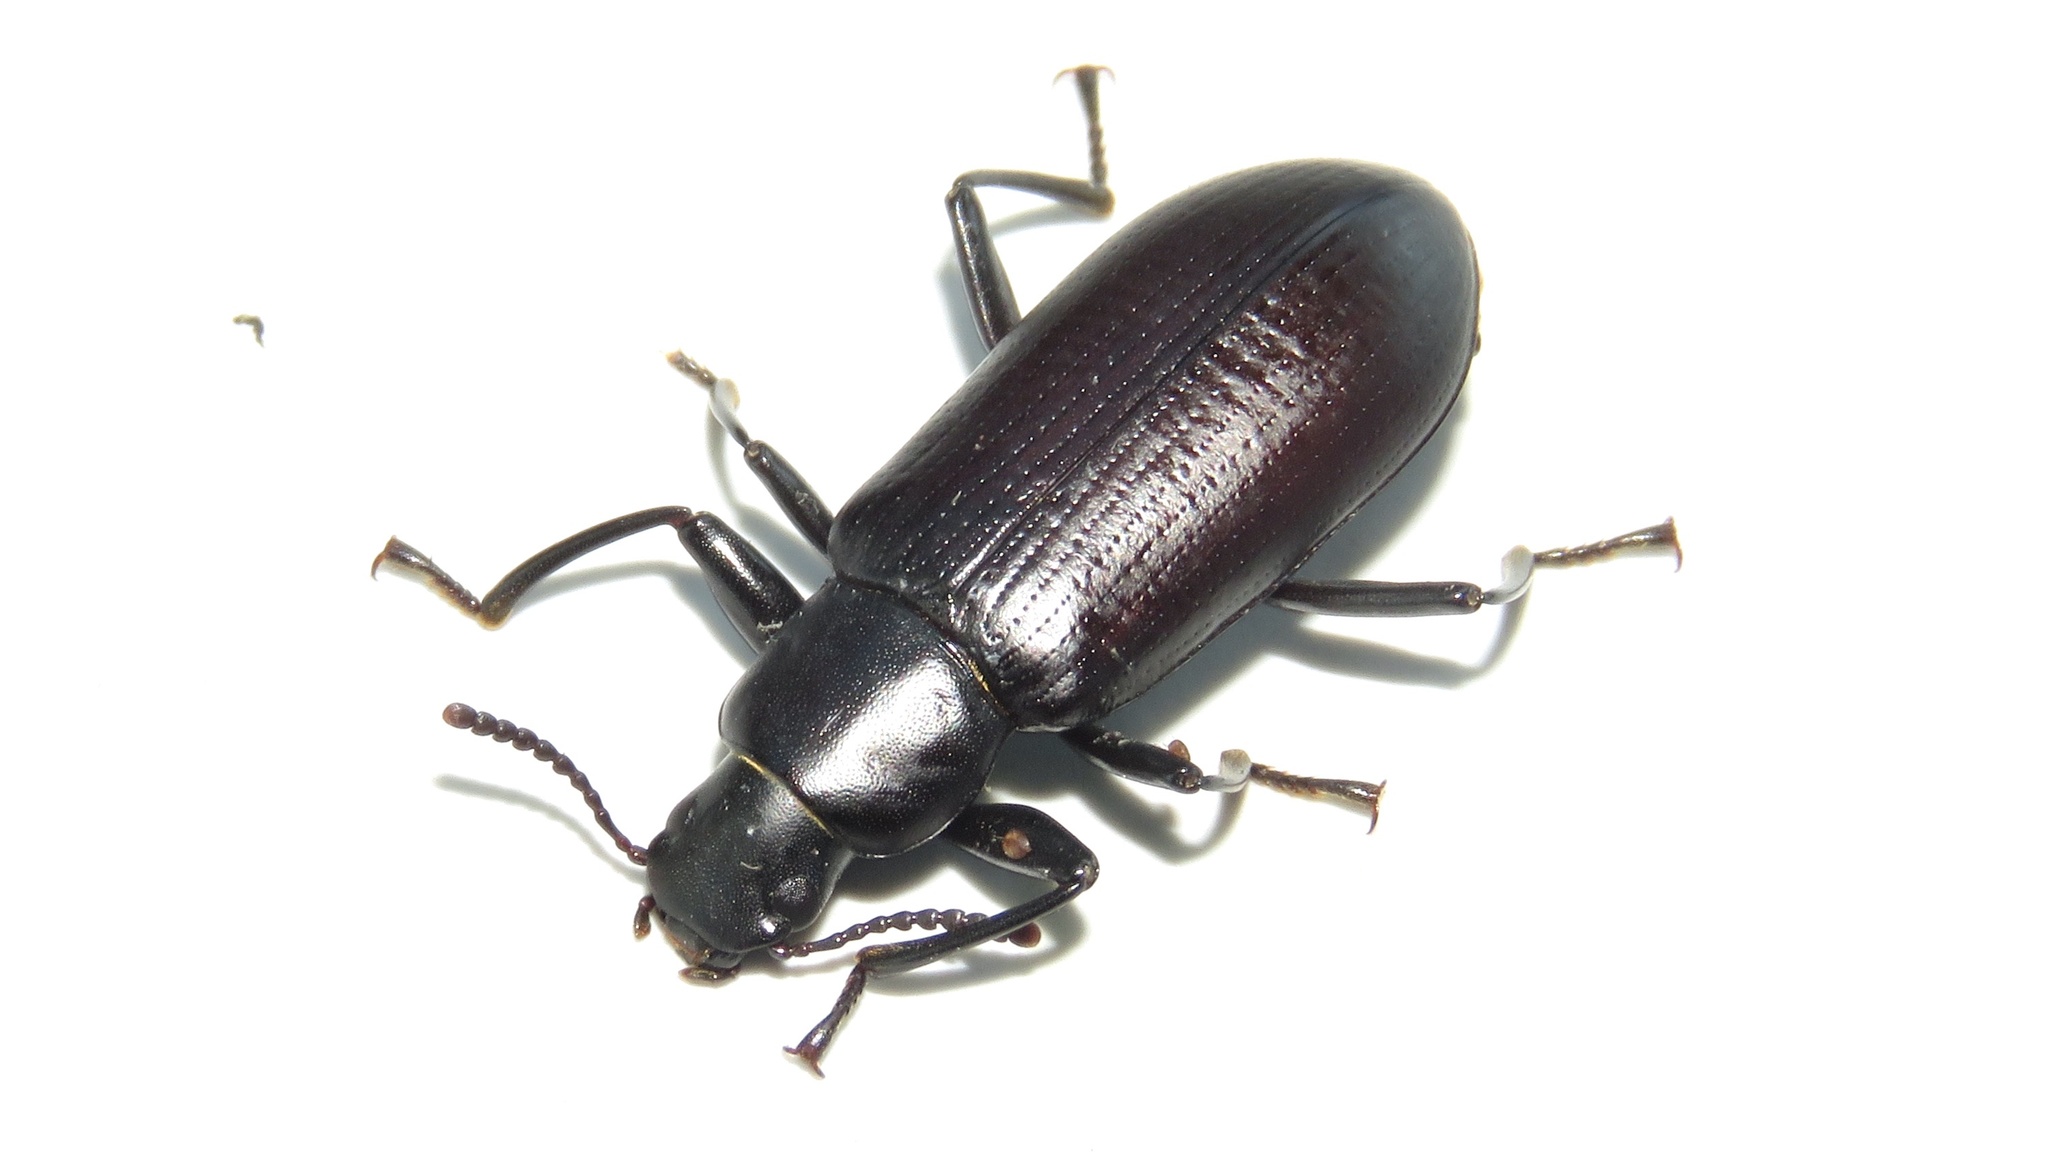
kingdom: Animalia
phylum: Arthropoda
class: Insecta
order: Coleoptera
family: Tenebrionidae
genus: Alobates
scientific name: Alobates pensylvanicus
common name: False mealworm beetle
